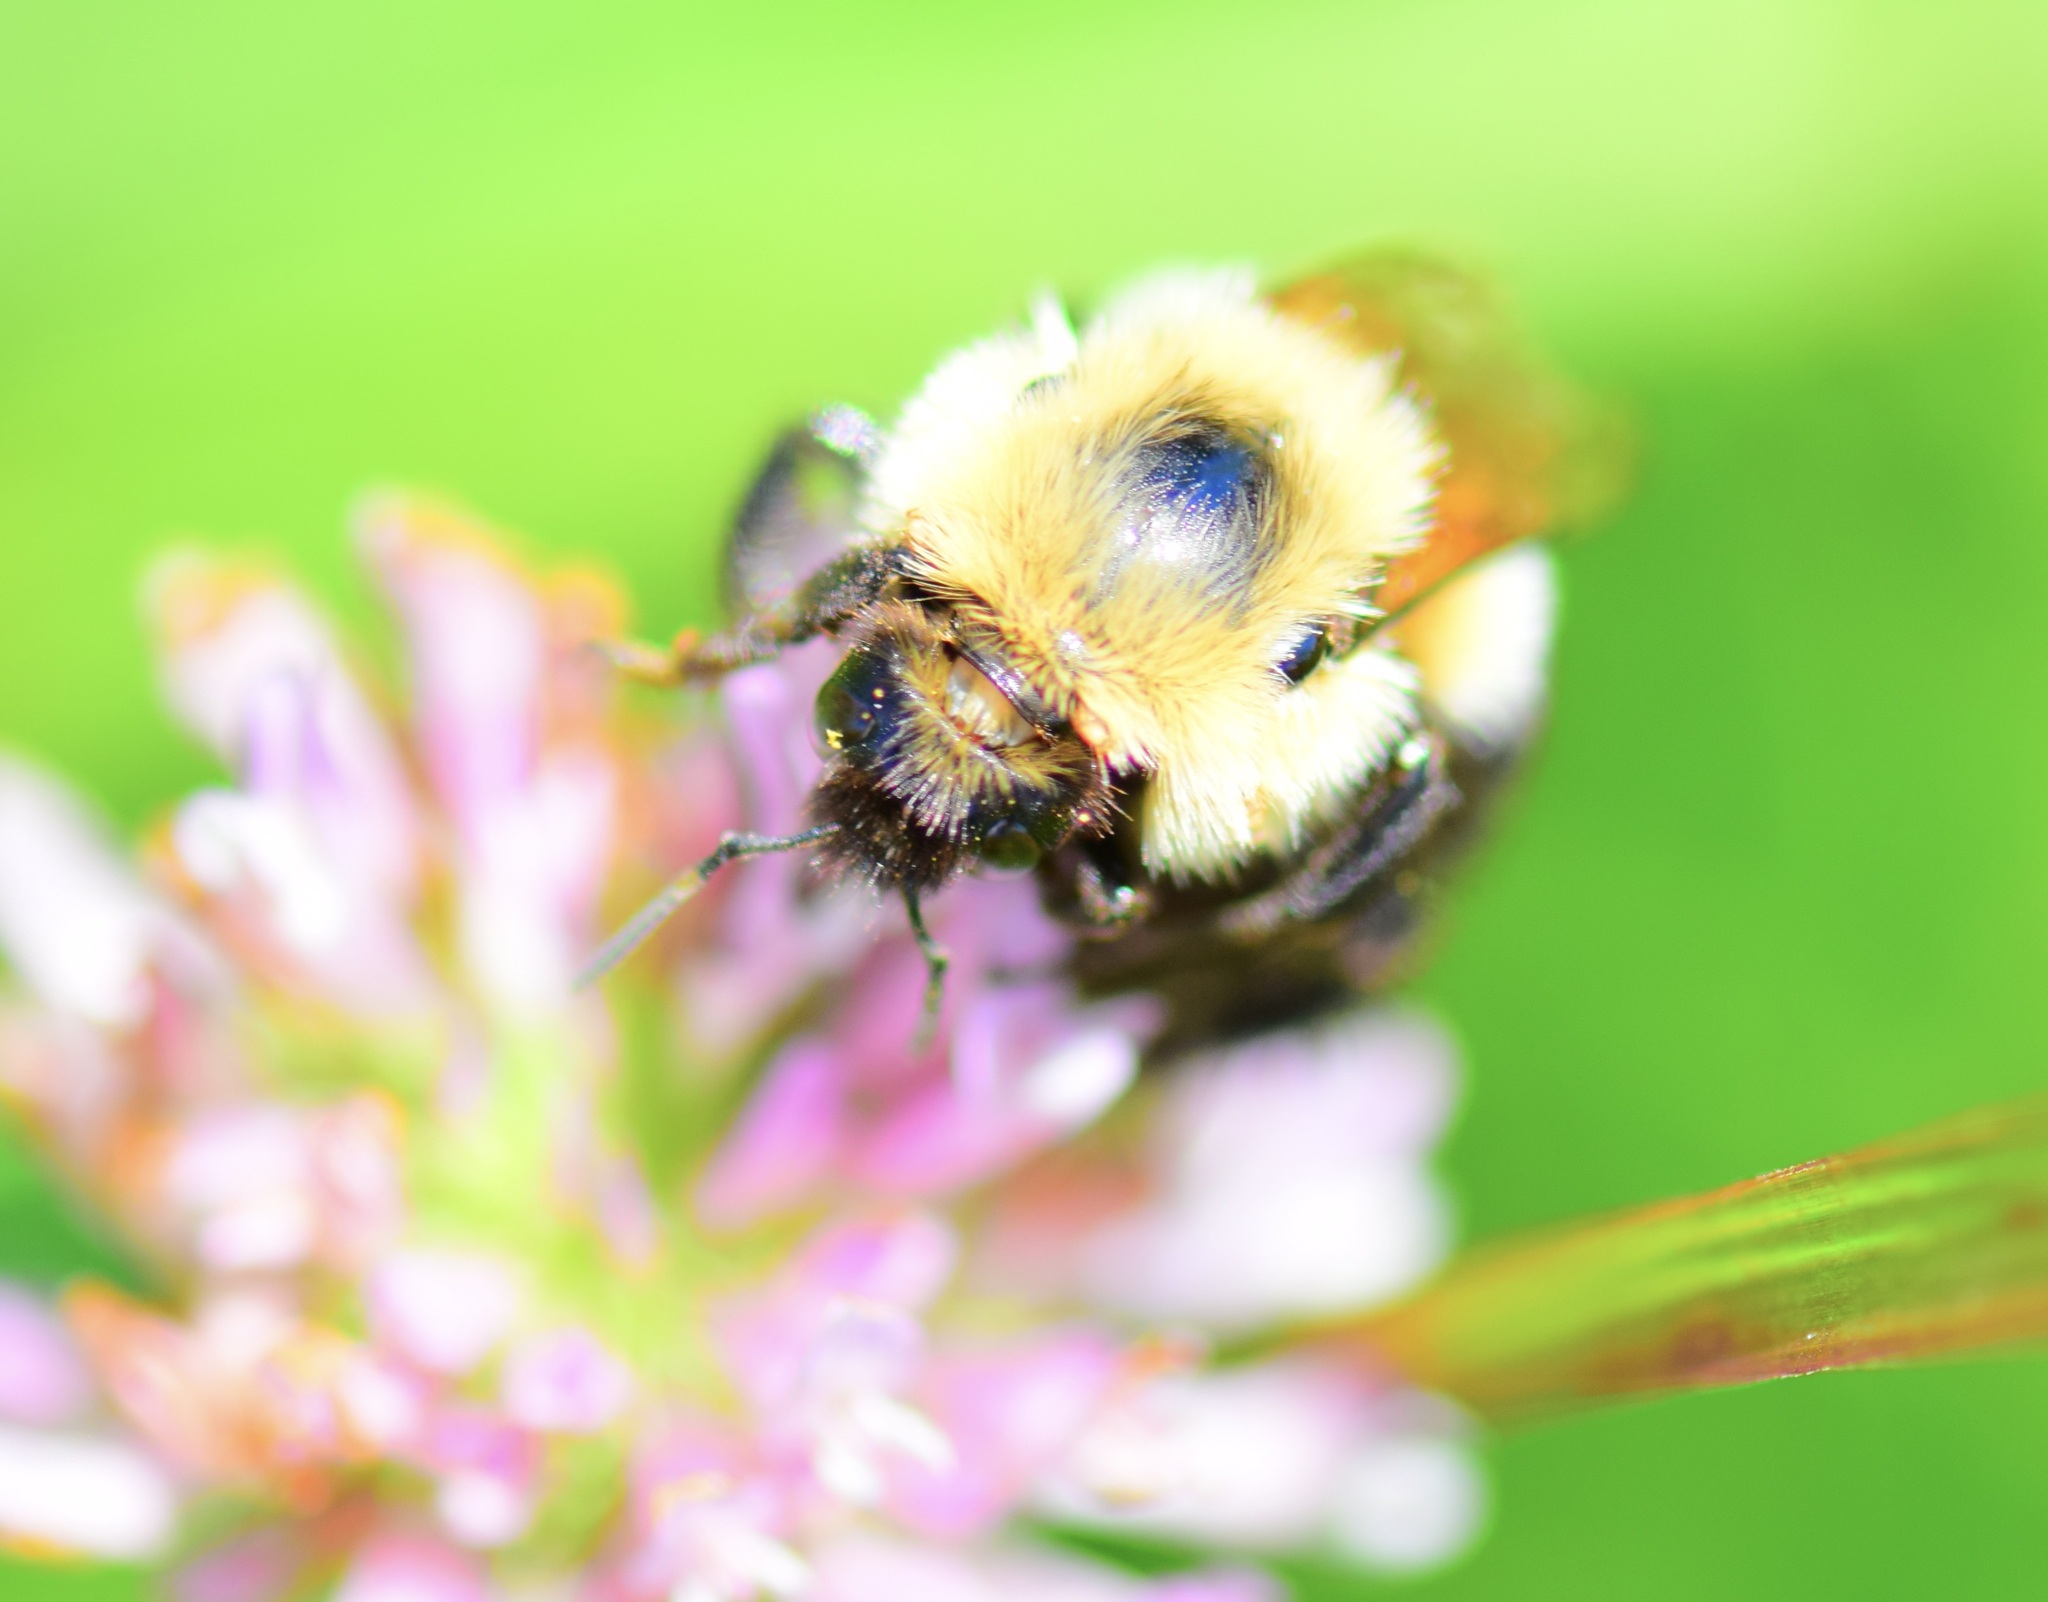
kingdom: Animalia
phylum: Arthropoda
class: Insecta
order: Hymenoptera
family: Apidae
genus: Bombus
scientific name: Bombus bimaculatus
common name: Two-spotted bumble bee
